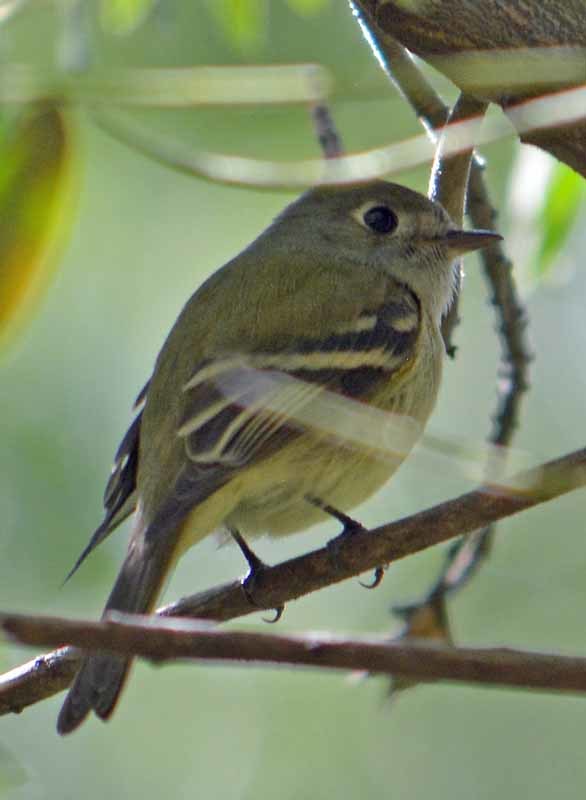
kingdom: Animalia
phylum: Chordata
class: Aves
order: Passeriformes
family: Regulidae
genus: Regulus
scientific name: Regulus calendula
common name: Ruby-crowned kinglet
